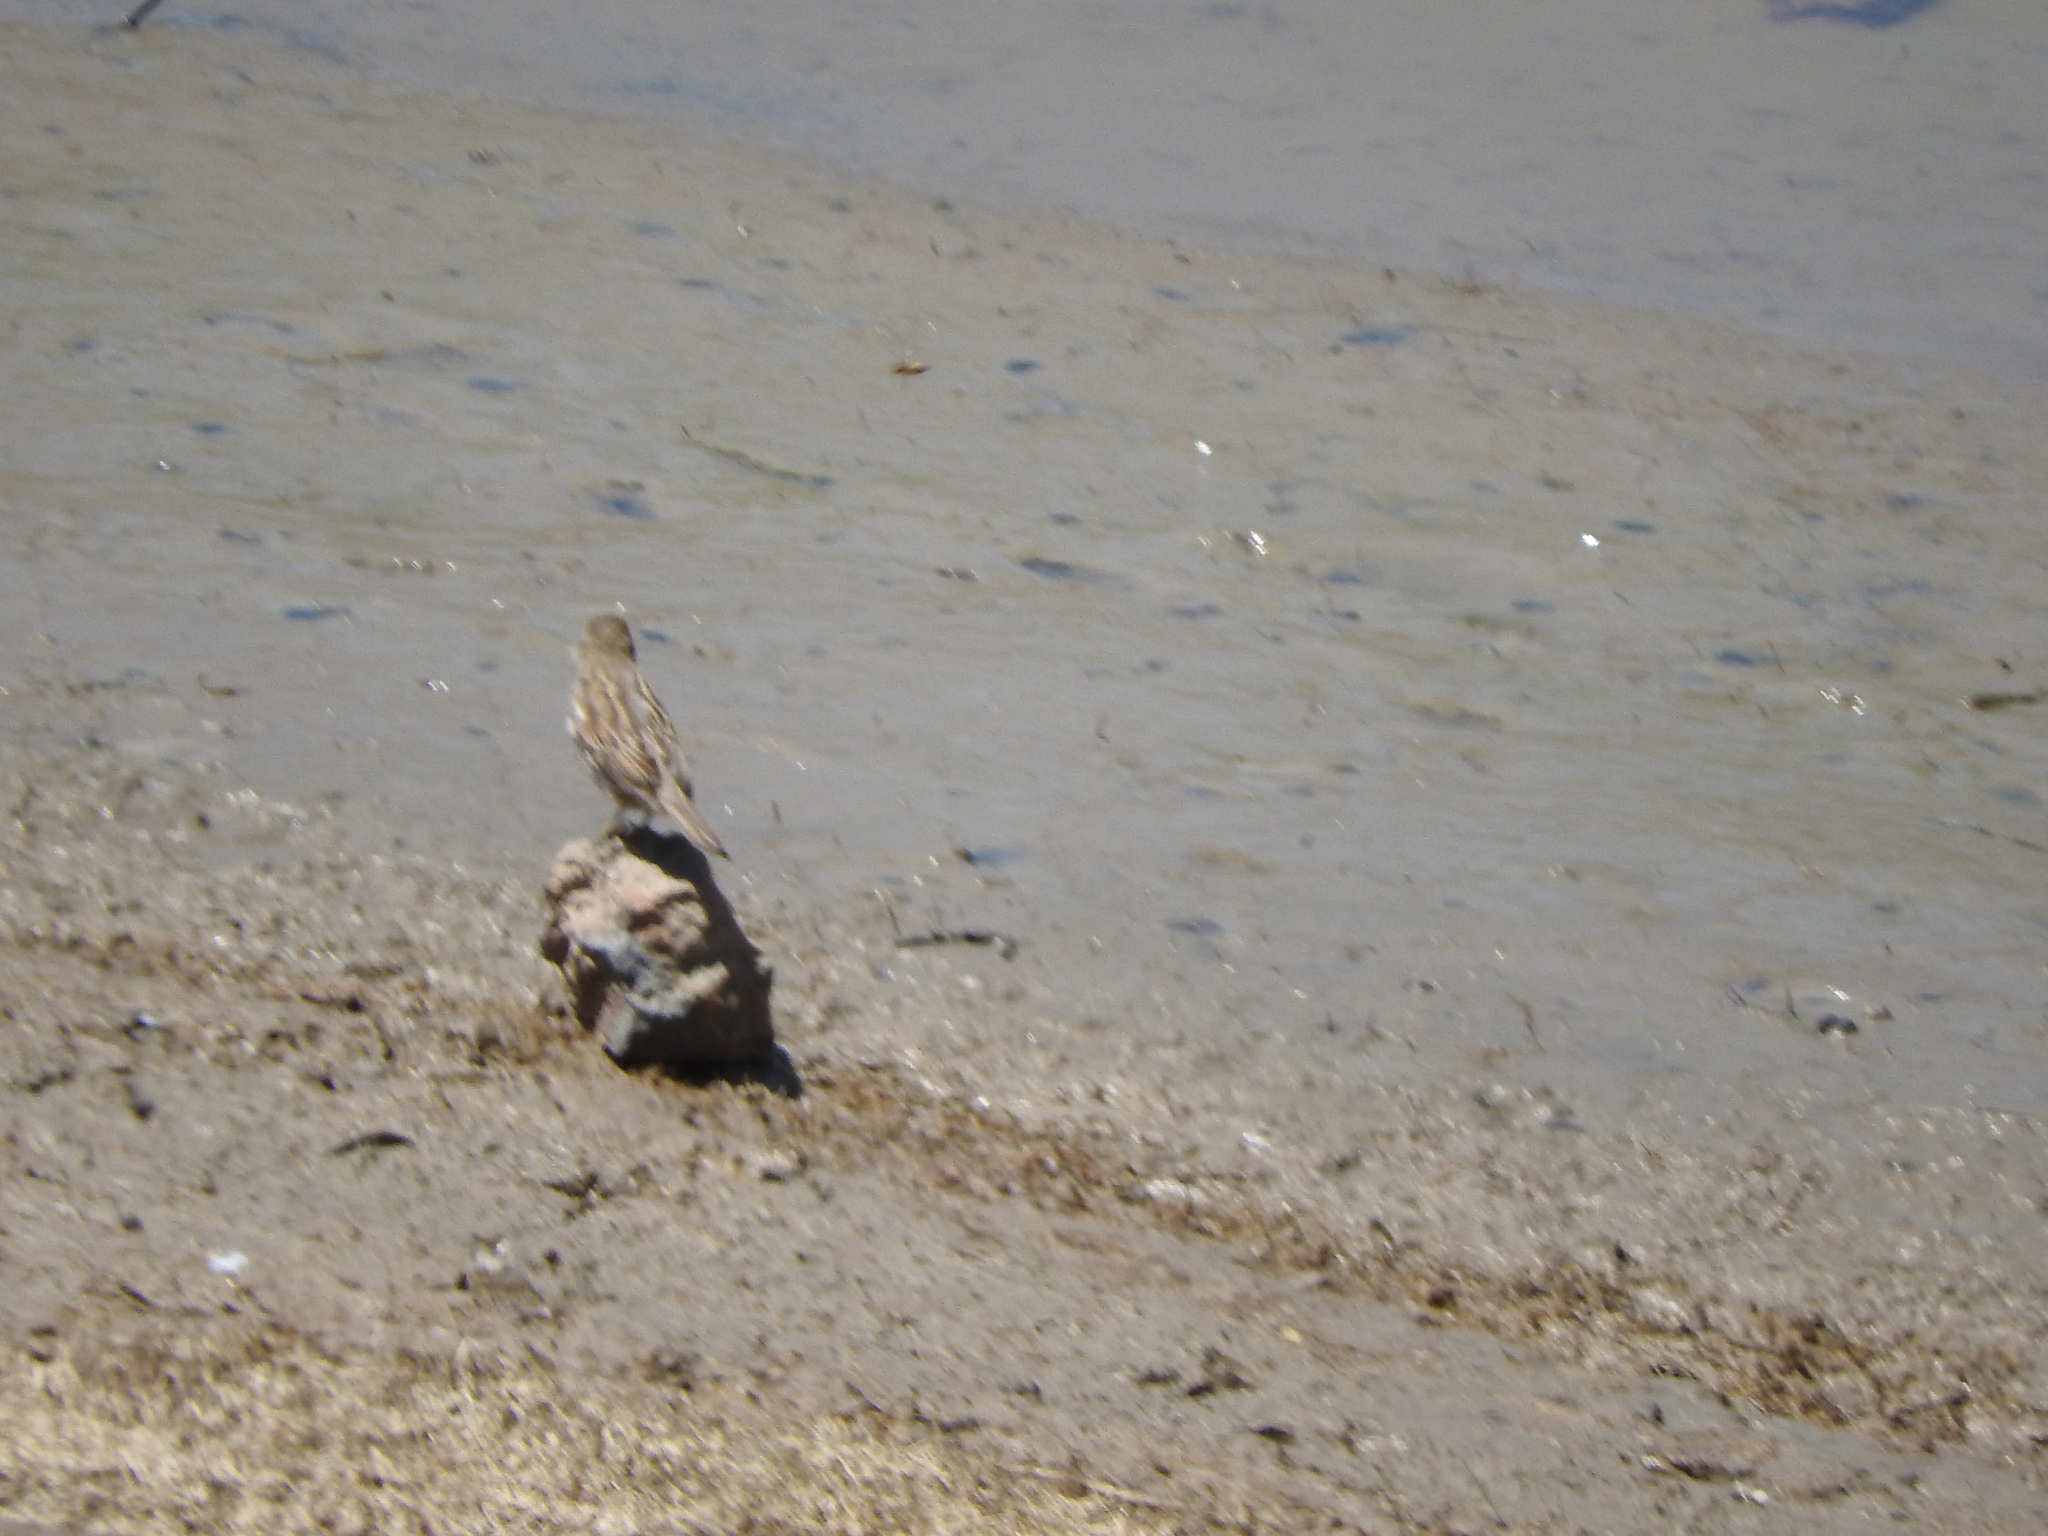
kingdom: Animalia
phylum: Chordata
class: Aves
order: Passeriformes
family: Passeridae
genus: Passer
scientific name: Passer domesticus
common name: House sparrow
